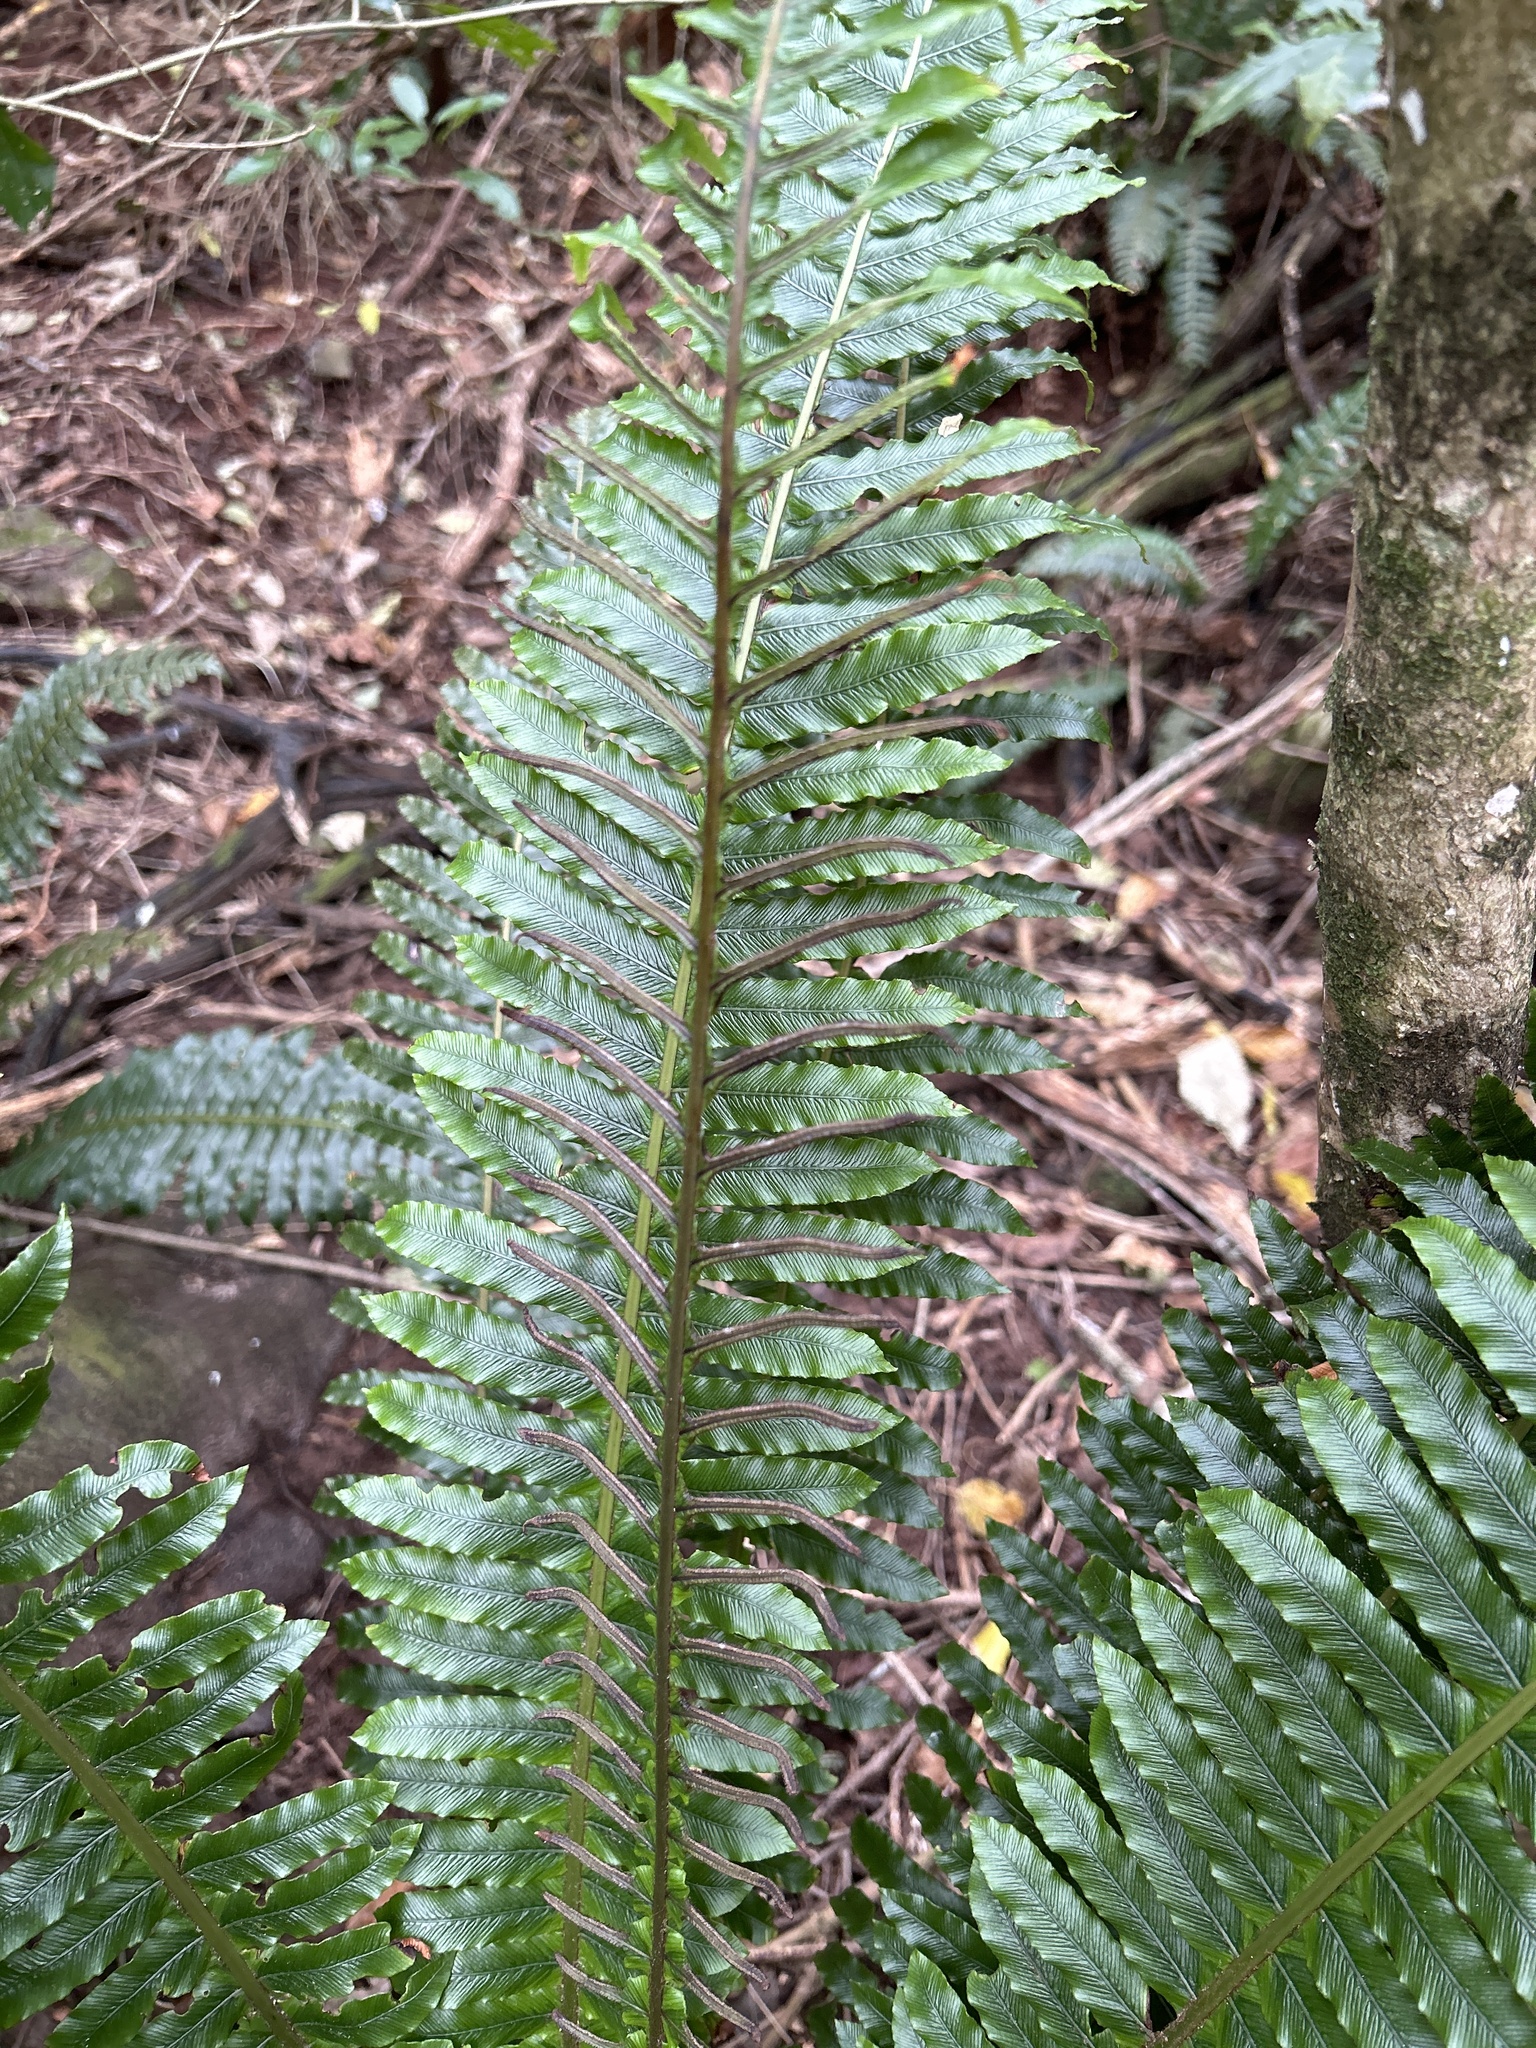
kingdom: Plantae
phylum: Tracheophyta
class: Polypodiopsida
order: Polypodiales
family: Blechnaceae
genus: Lomaria
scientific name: Lomaria discolor
